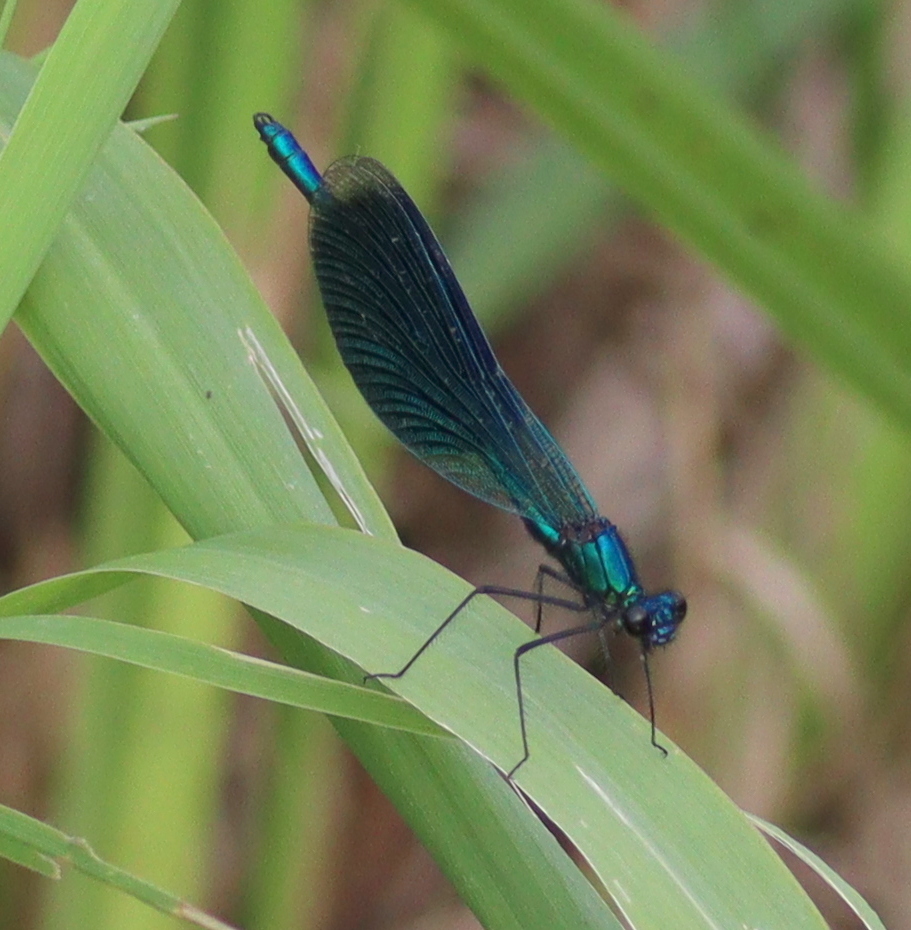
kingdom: Animalia
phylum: Arthropoda
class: Insecta
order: Odonata
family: Calopterygidae
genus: Calopteryx
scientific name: Calopteryx splendens
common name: Banded demoiselle
